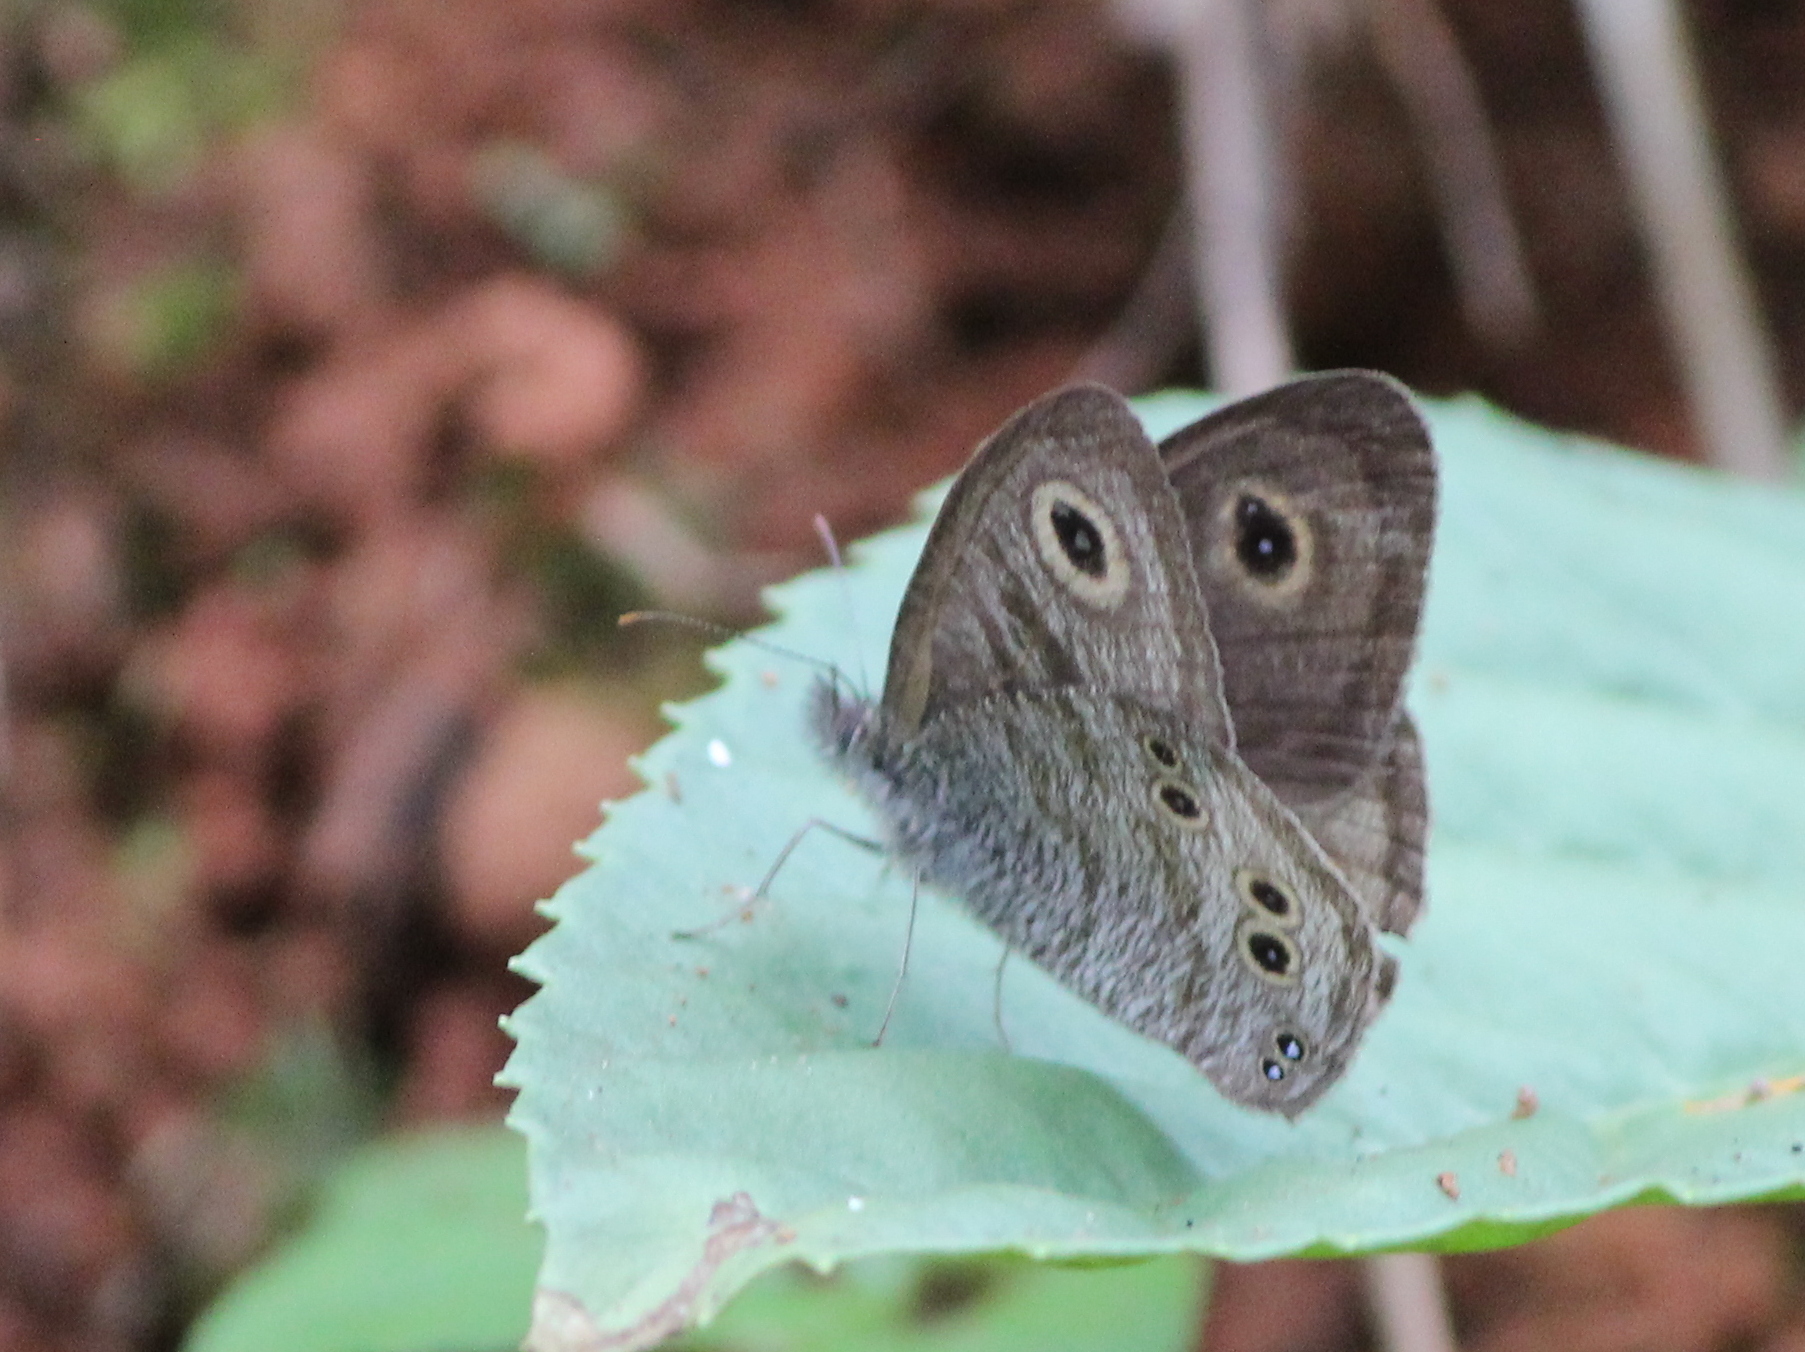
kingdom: Animalia
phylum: Arthropoda
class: Insecta
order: Lepidoptera
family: Nymphalidae
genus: Ypthima
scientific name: Ypthima baldus
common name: Common five-ring
